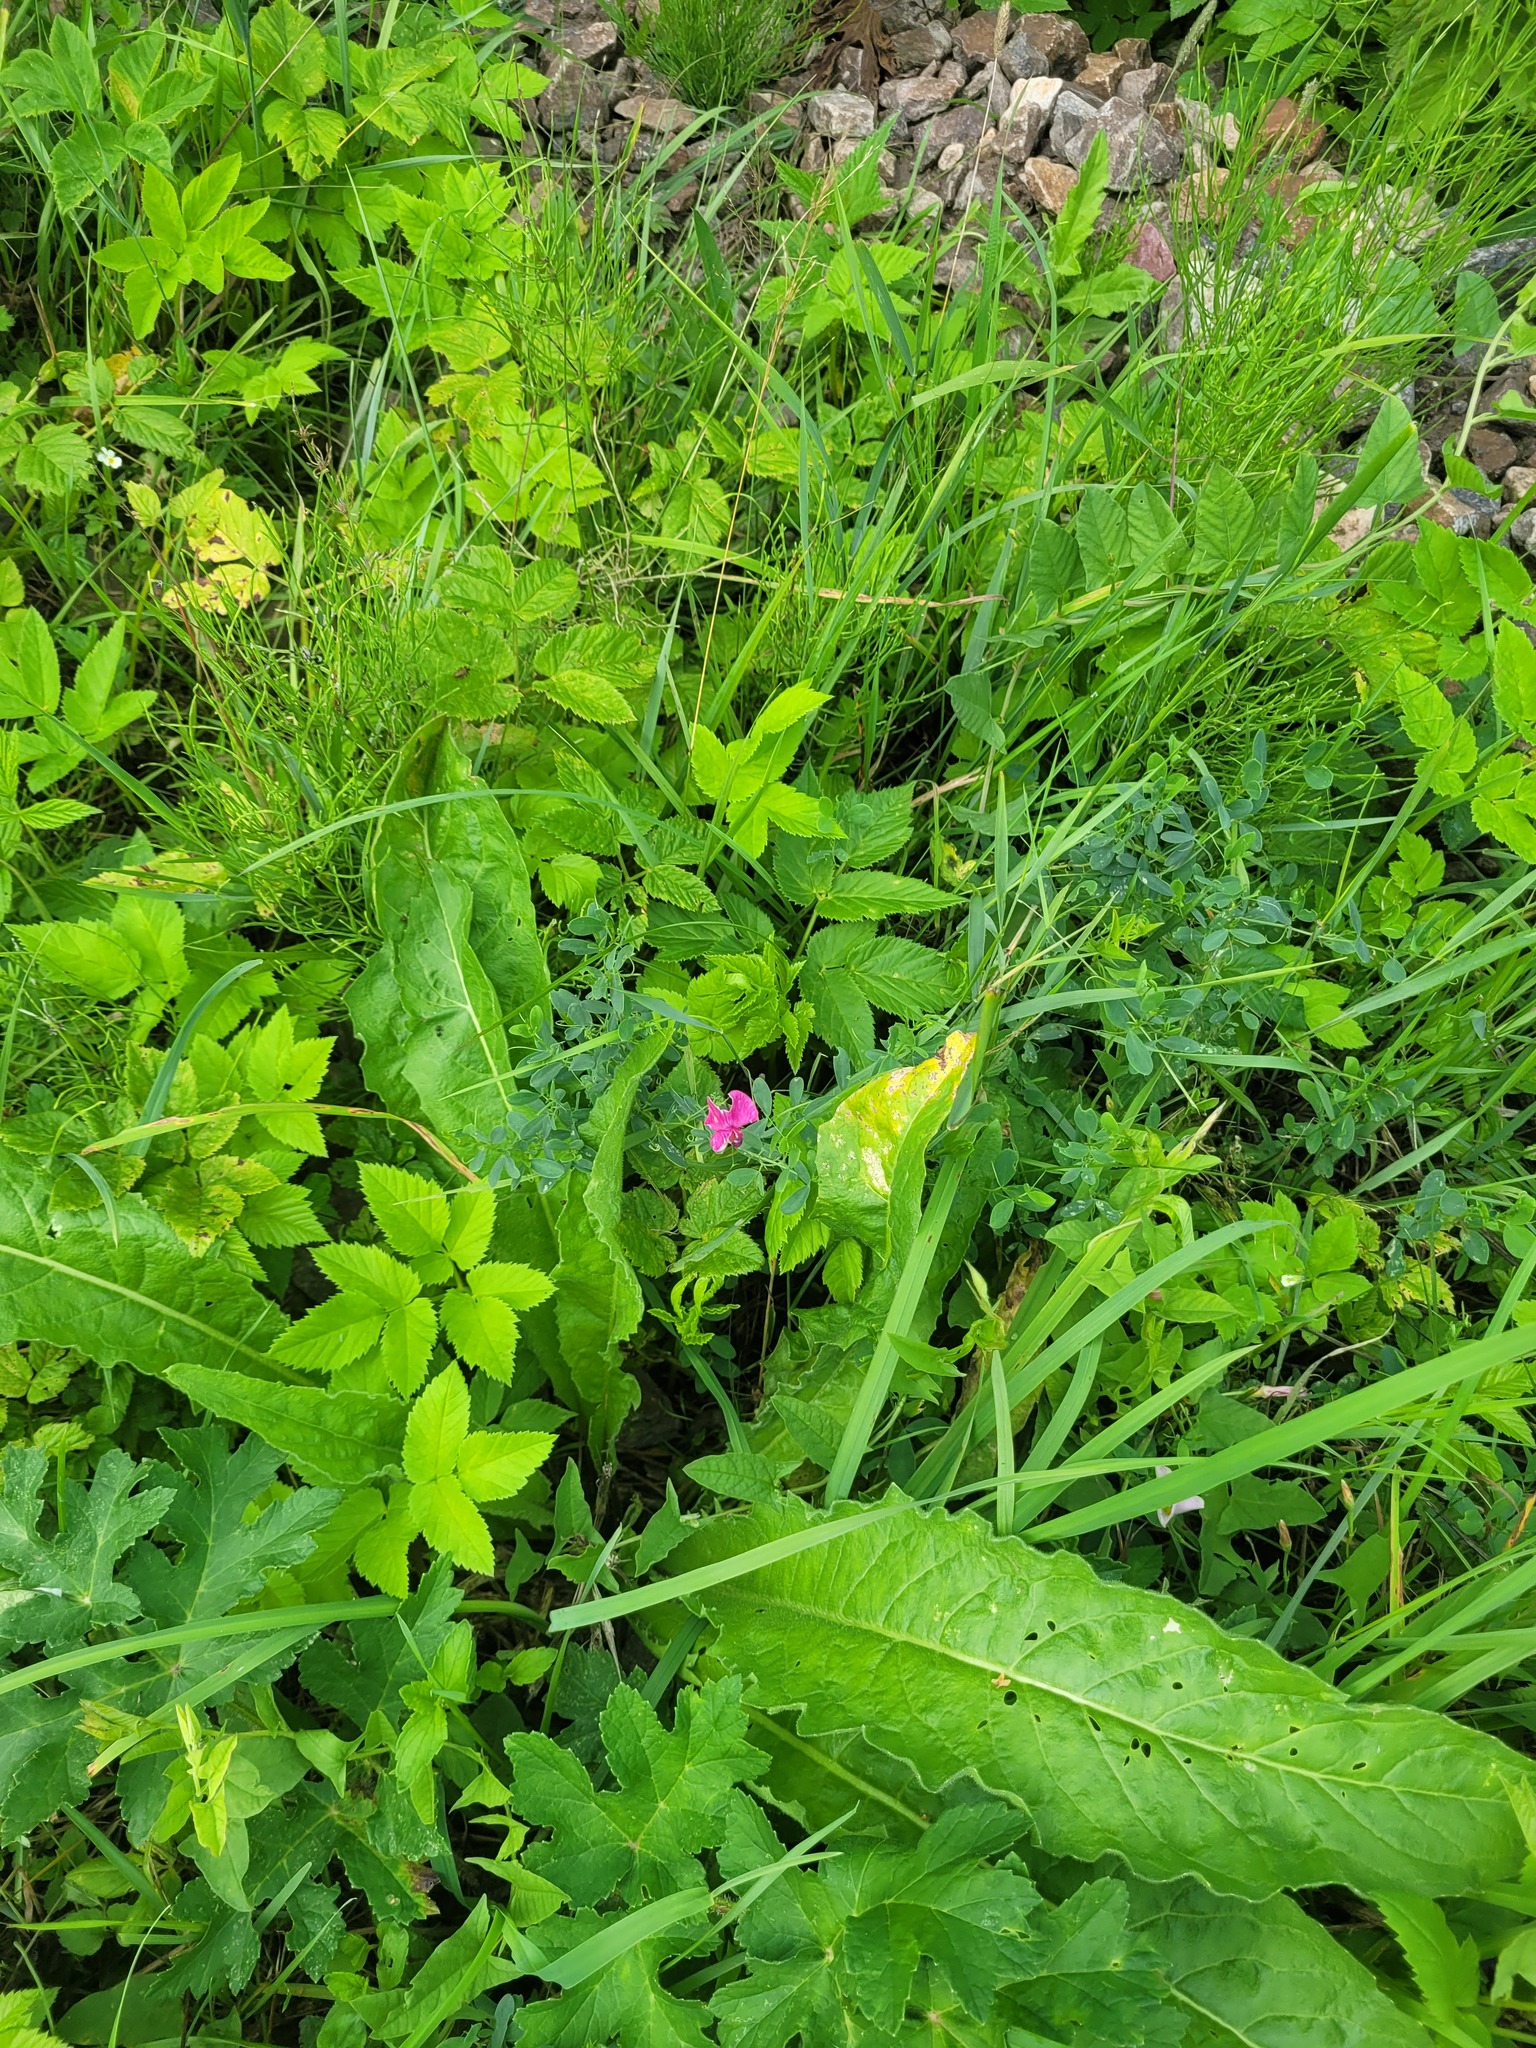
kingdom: Plantae
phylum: Tracheophyta
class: Magnoliopsida
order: Fabales
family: Fabaceae
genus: Lathyrus
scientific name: Lathyrus tuberosus
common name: Tuberous pea
